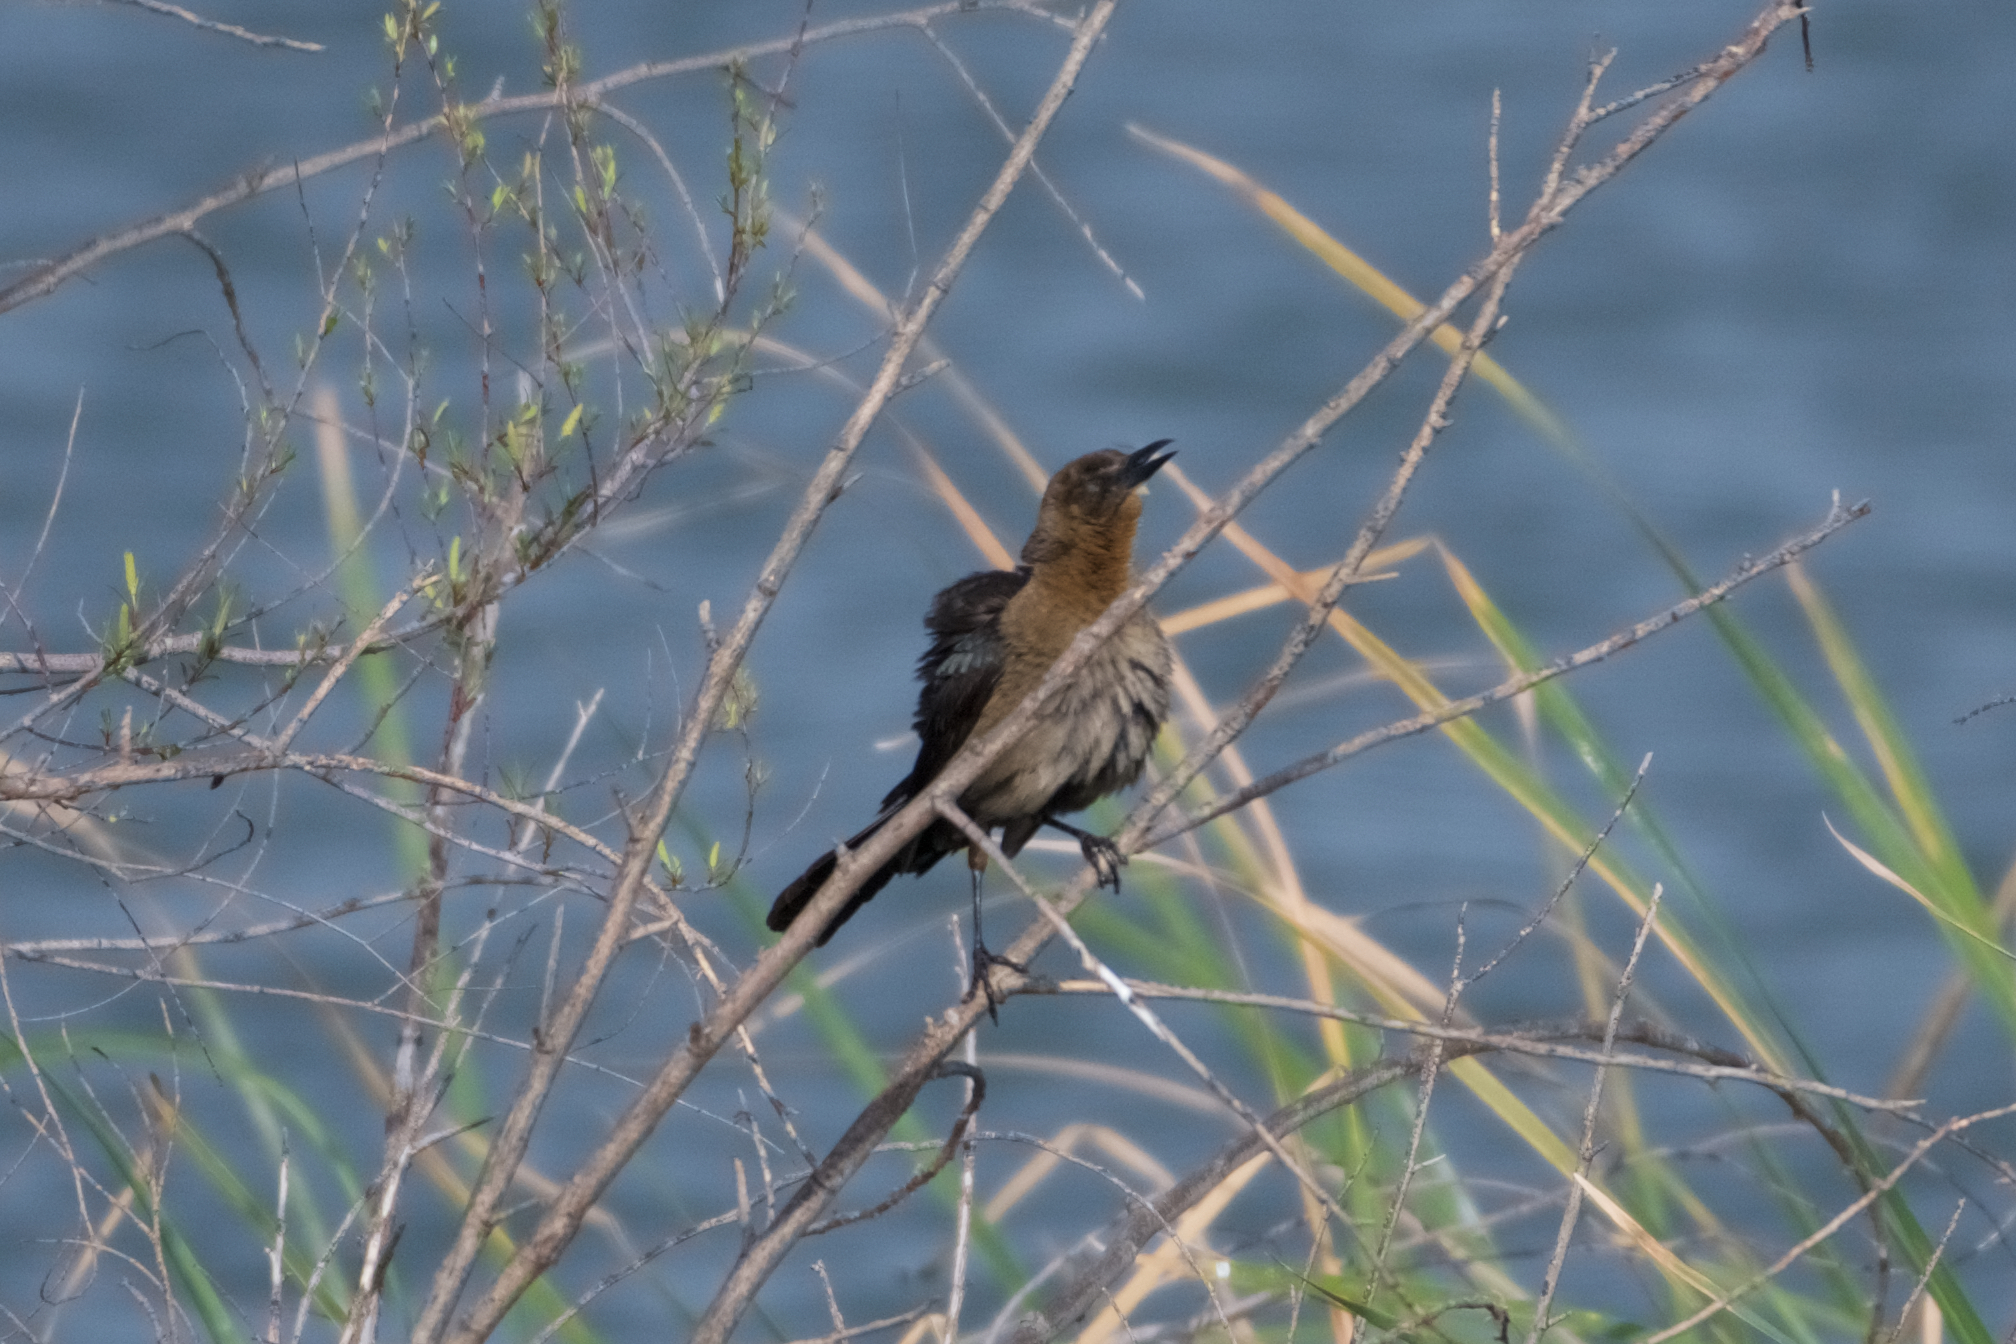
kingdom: Animalia
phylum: Chordata
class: Aves
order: Passeriformes
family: Icteridae
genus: Quiscalus
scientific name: Quiscalus mexicanus
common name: Great-tailed grackle
